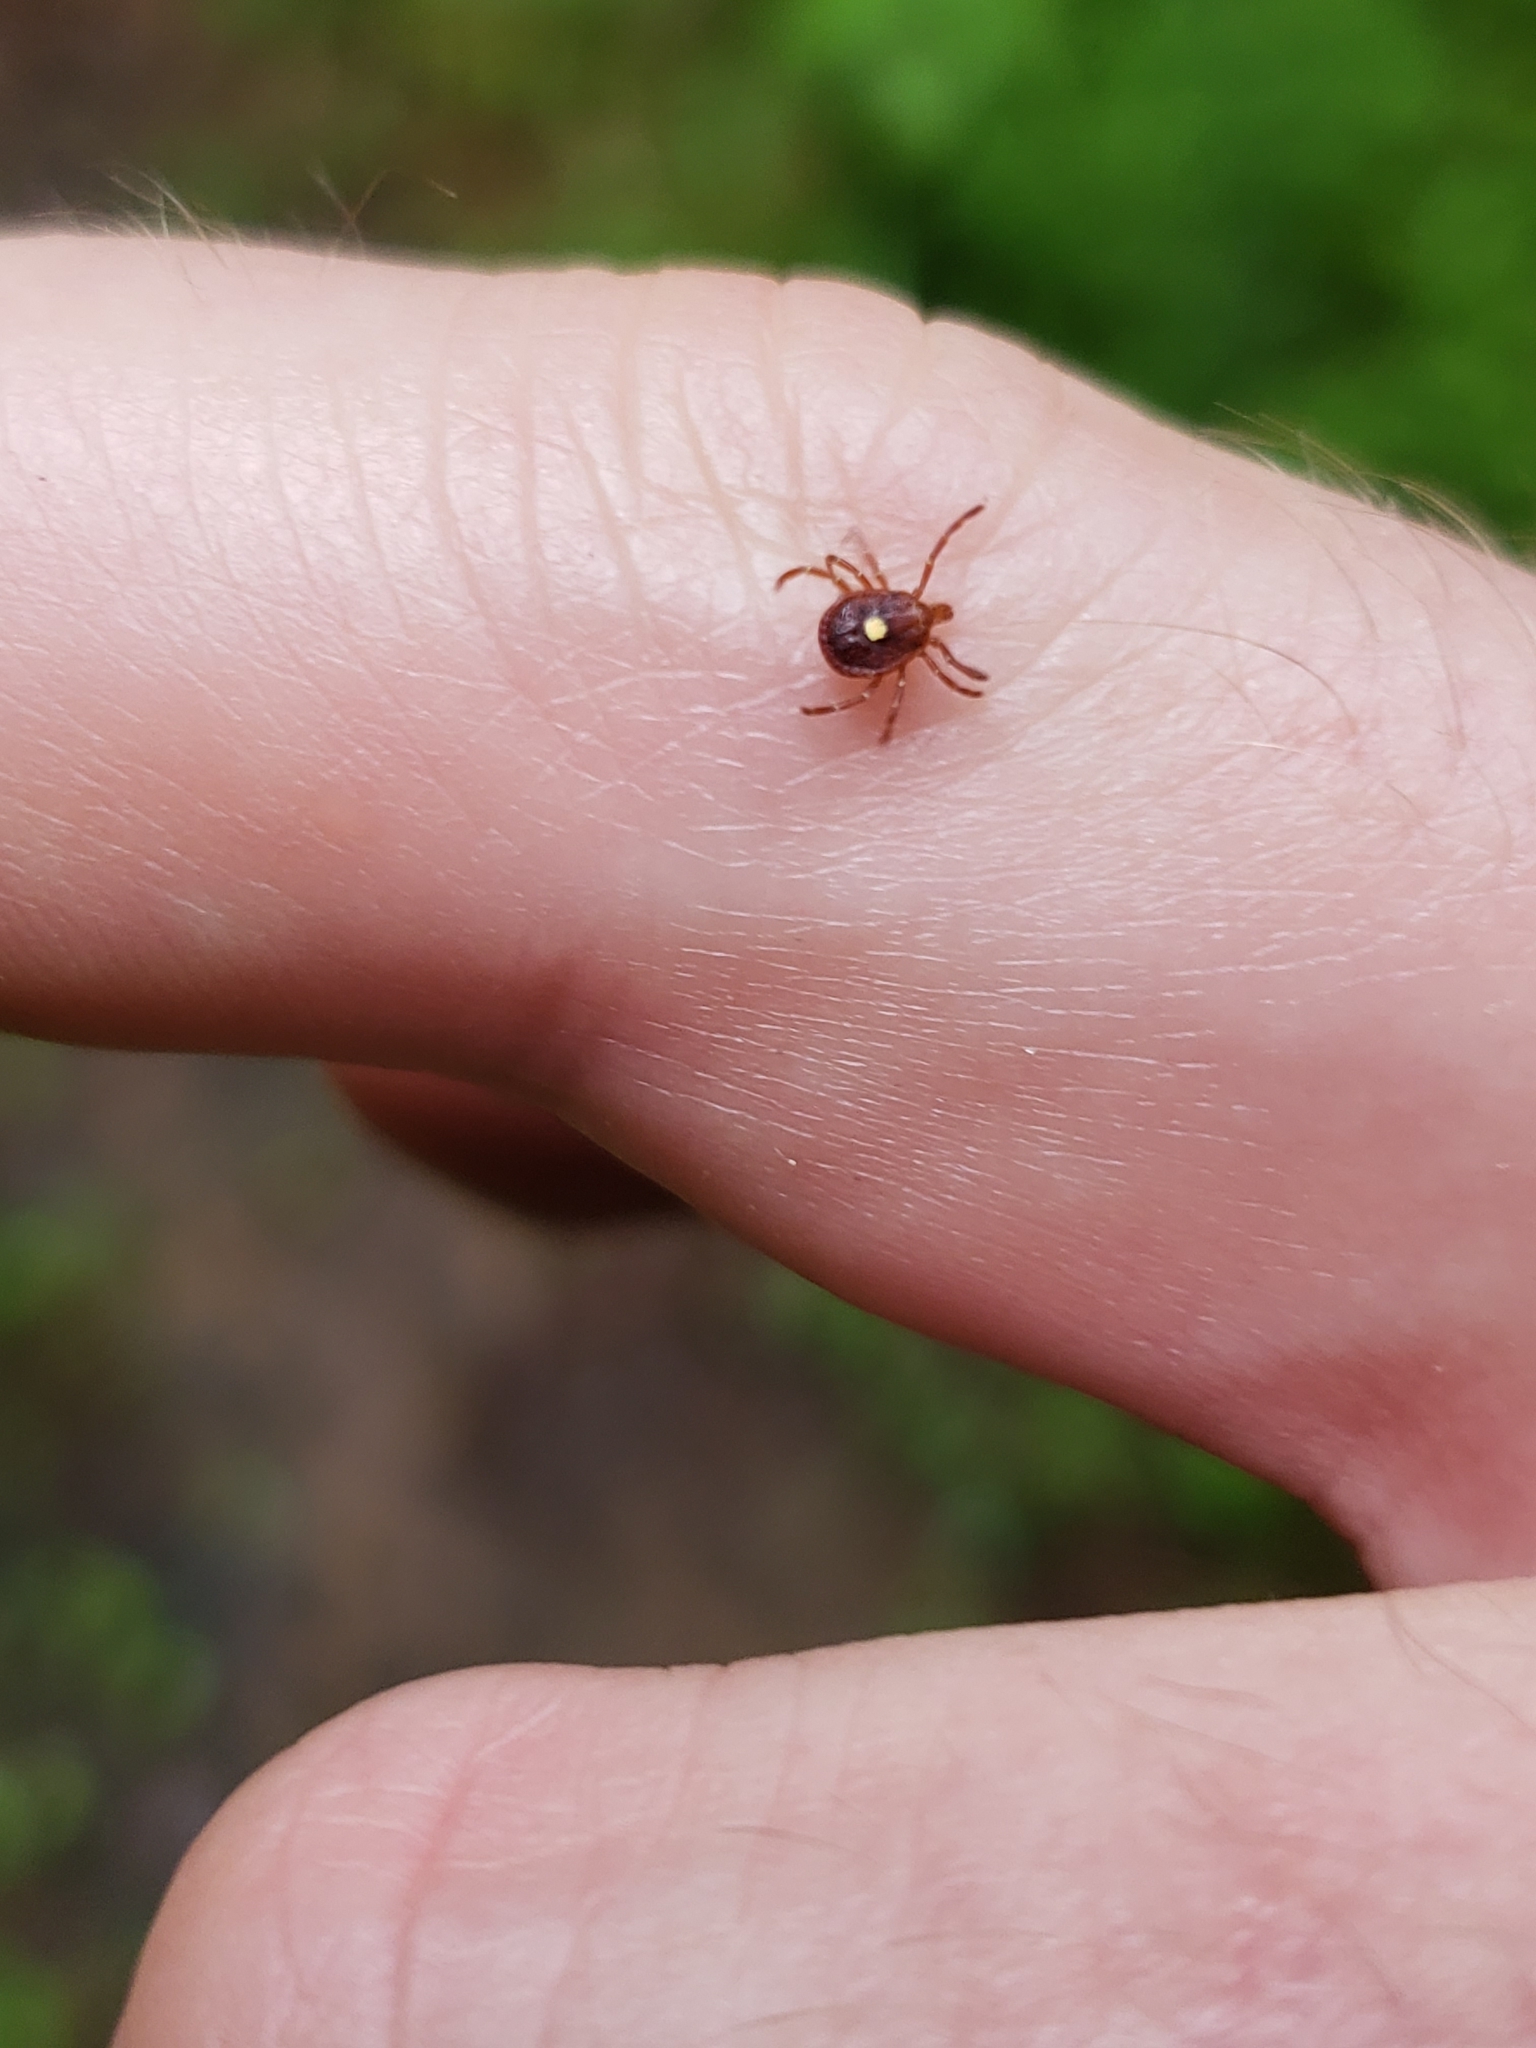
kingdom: Animalia
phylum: Arthropoda
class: Arachnida
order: Ixodida
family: Ixodidae
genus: Amblyomma
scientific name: Amblyomma americanum
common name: Lone star tick
